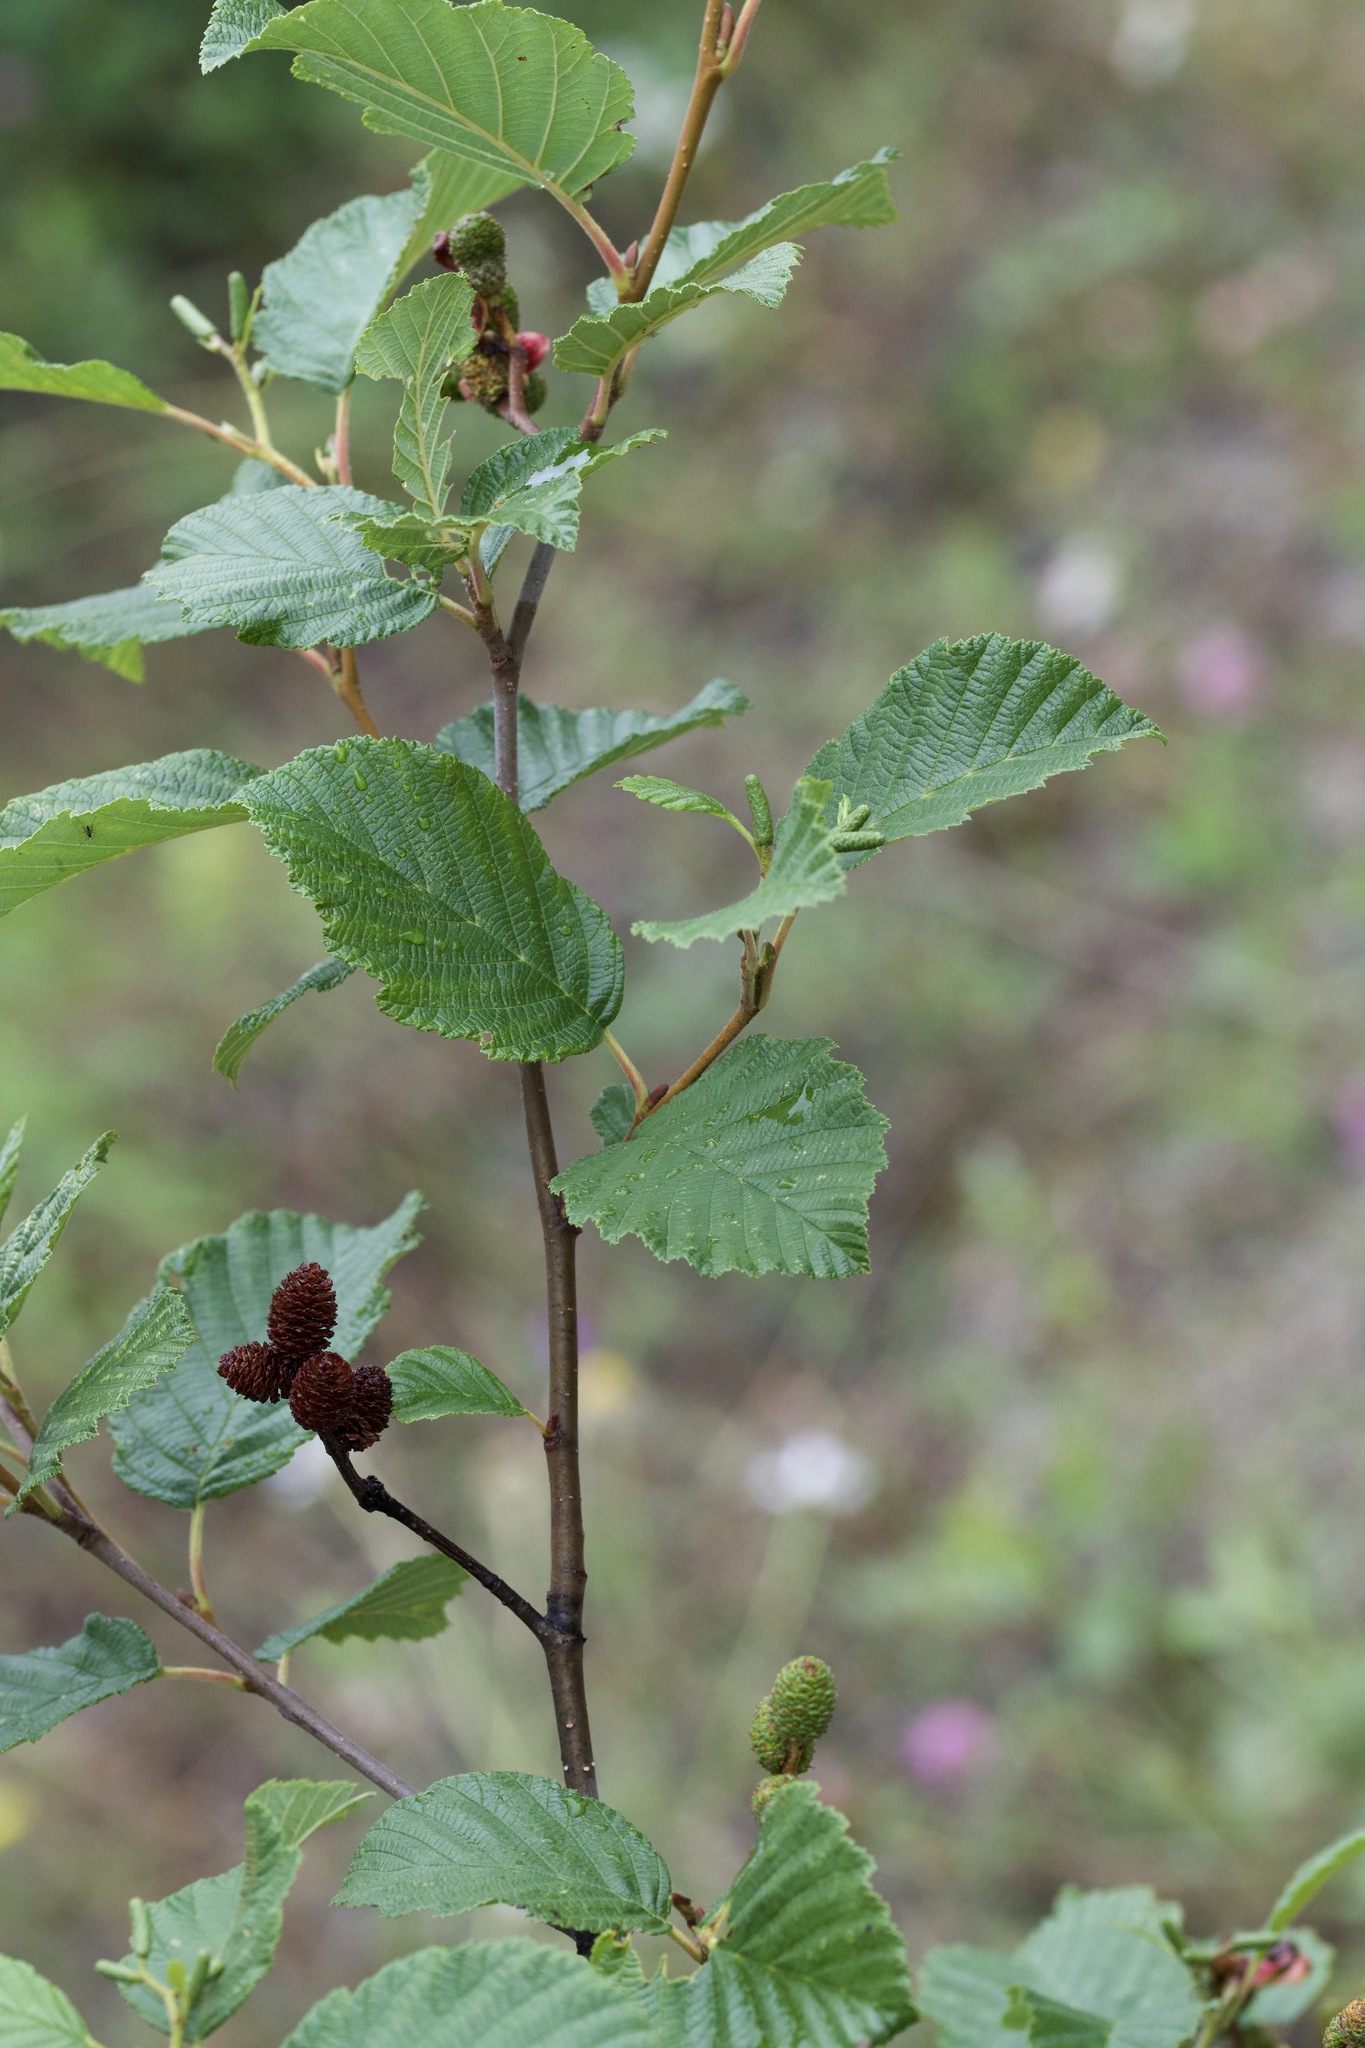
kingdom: Plantae
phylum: Tracheophyta
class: Magnoliopsida
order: Fagales
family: Betulaceae
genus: Alnus
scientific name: Alnus incana
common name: Grey alder
